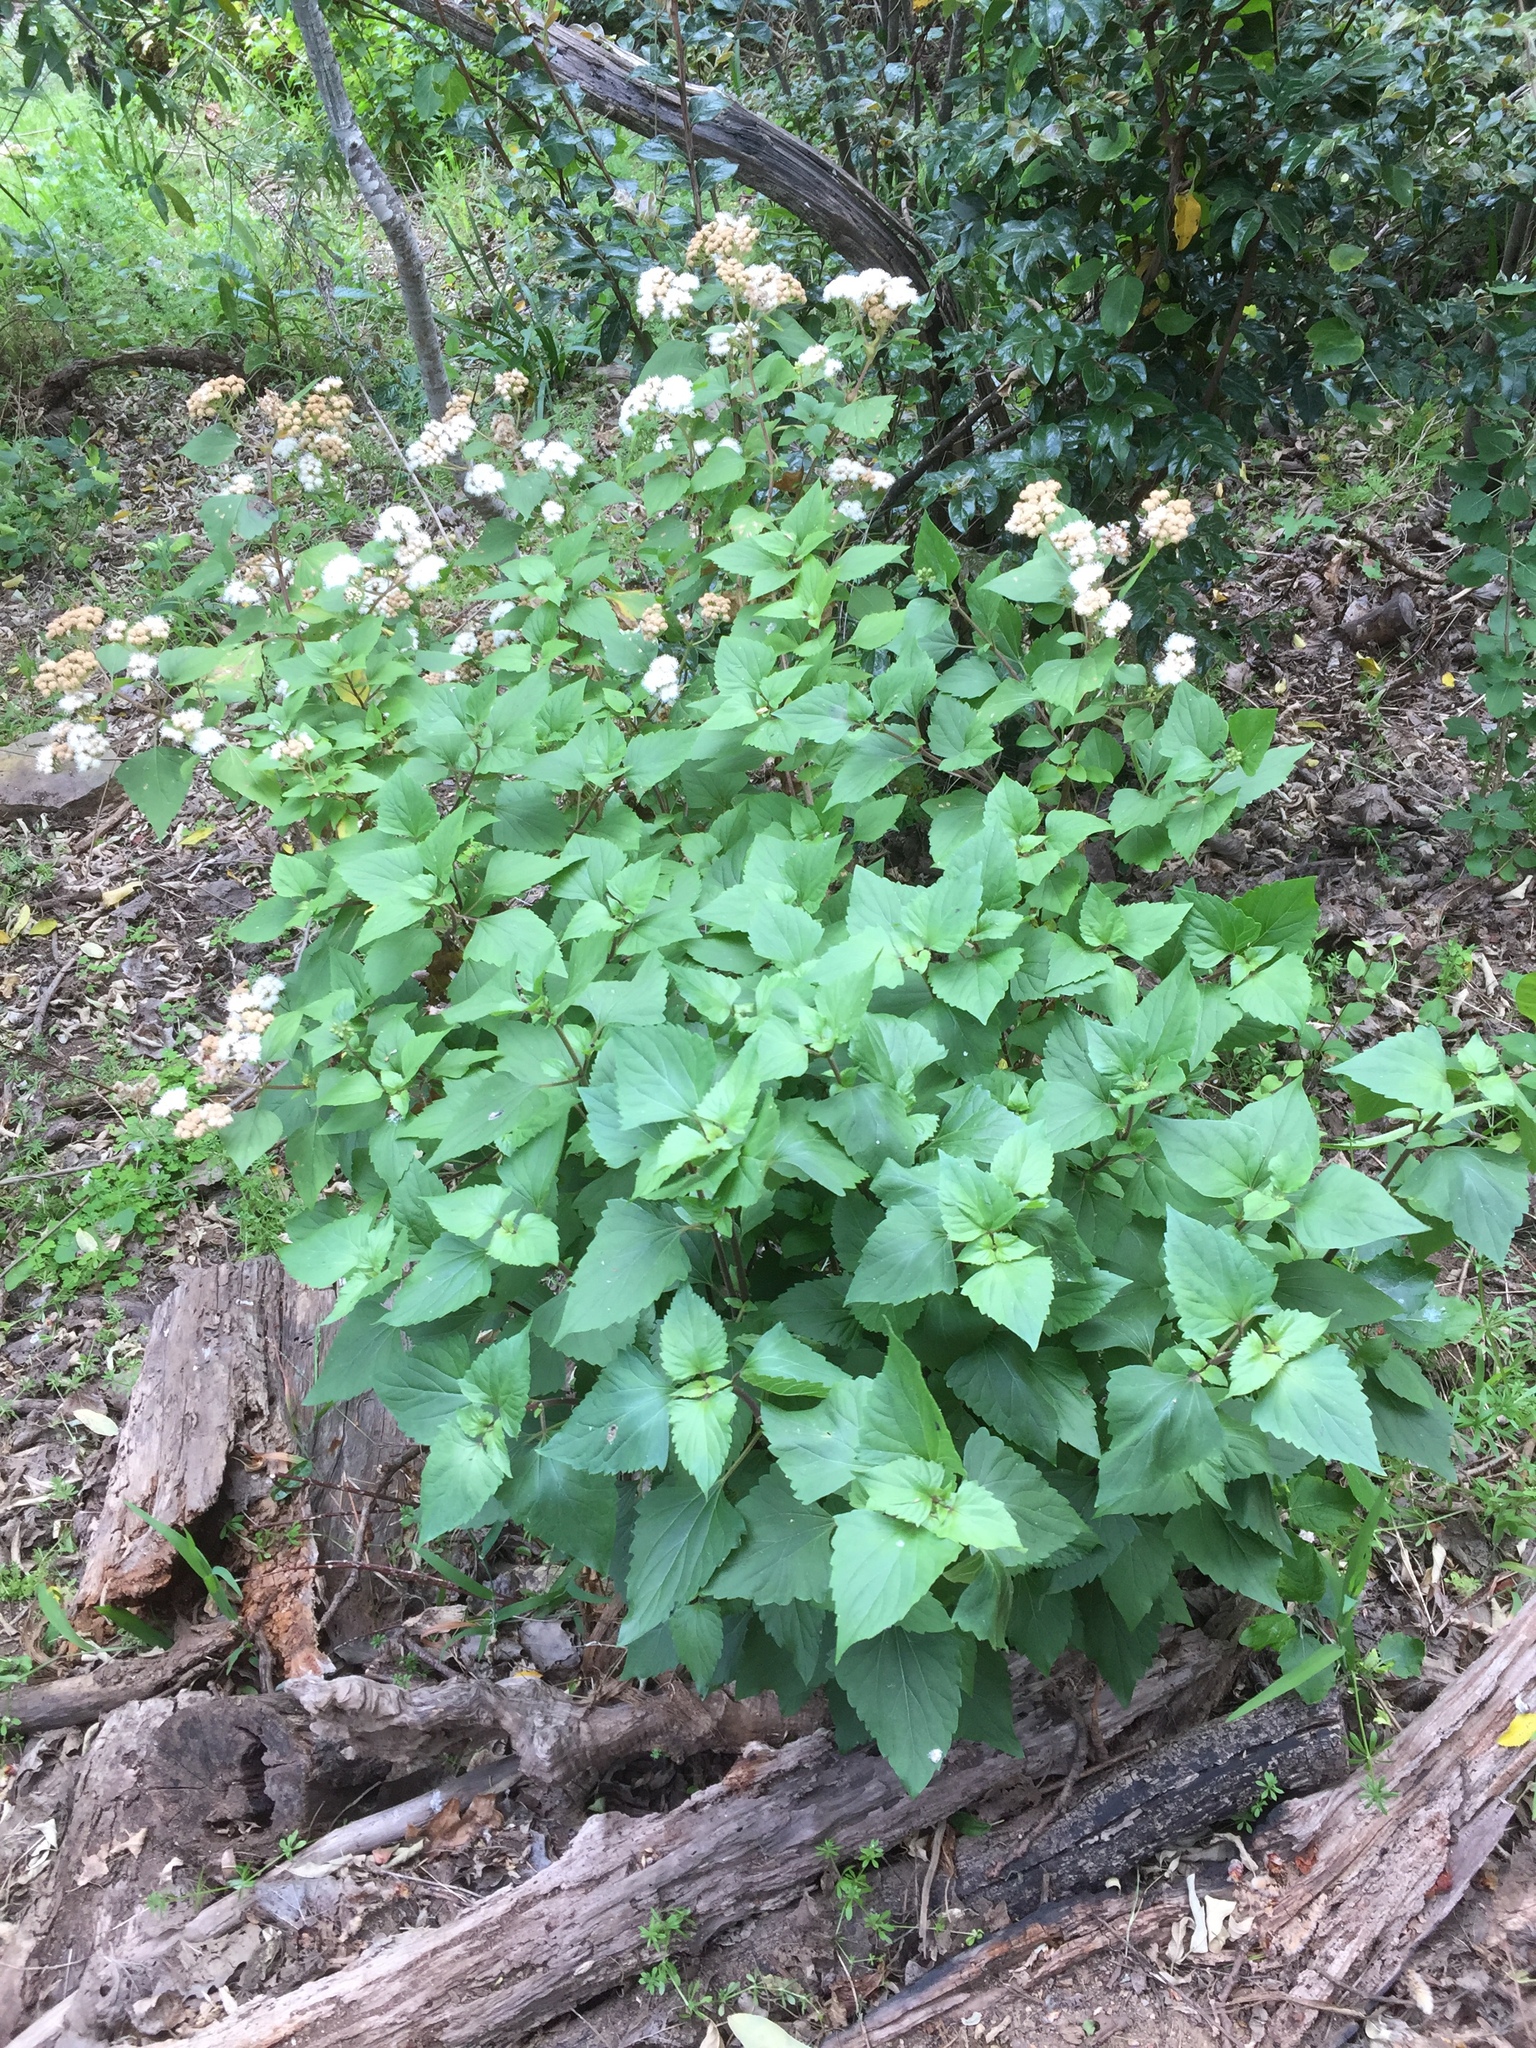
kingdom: Plantae
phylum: Tracheophyta
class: Magnoliopsida
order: Asterales
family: Asteraceae
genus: Ageratina
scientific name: Ageratina adenophora
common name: Sticky snakeroot
